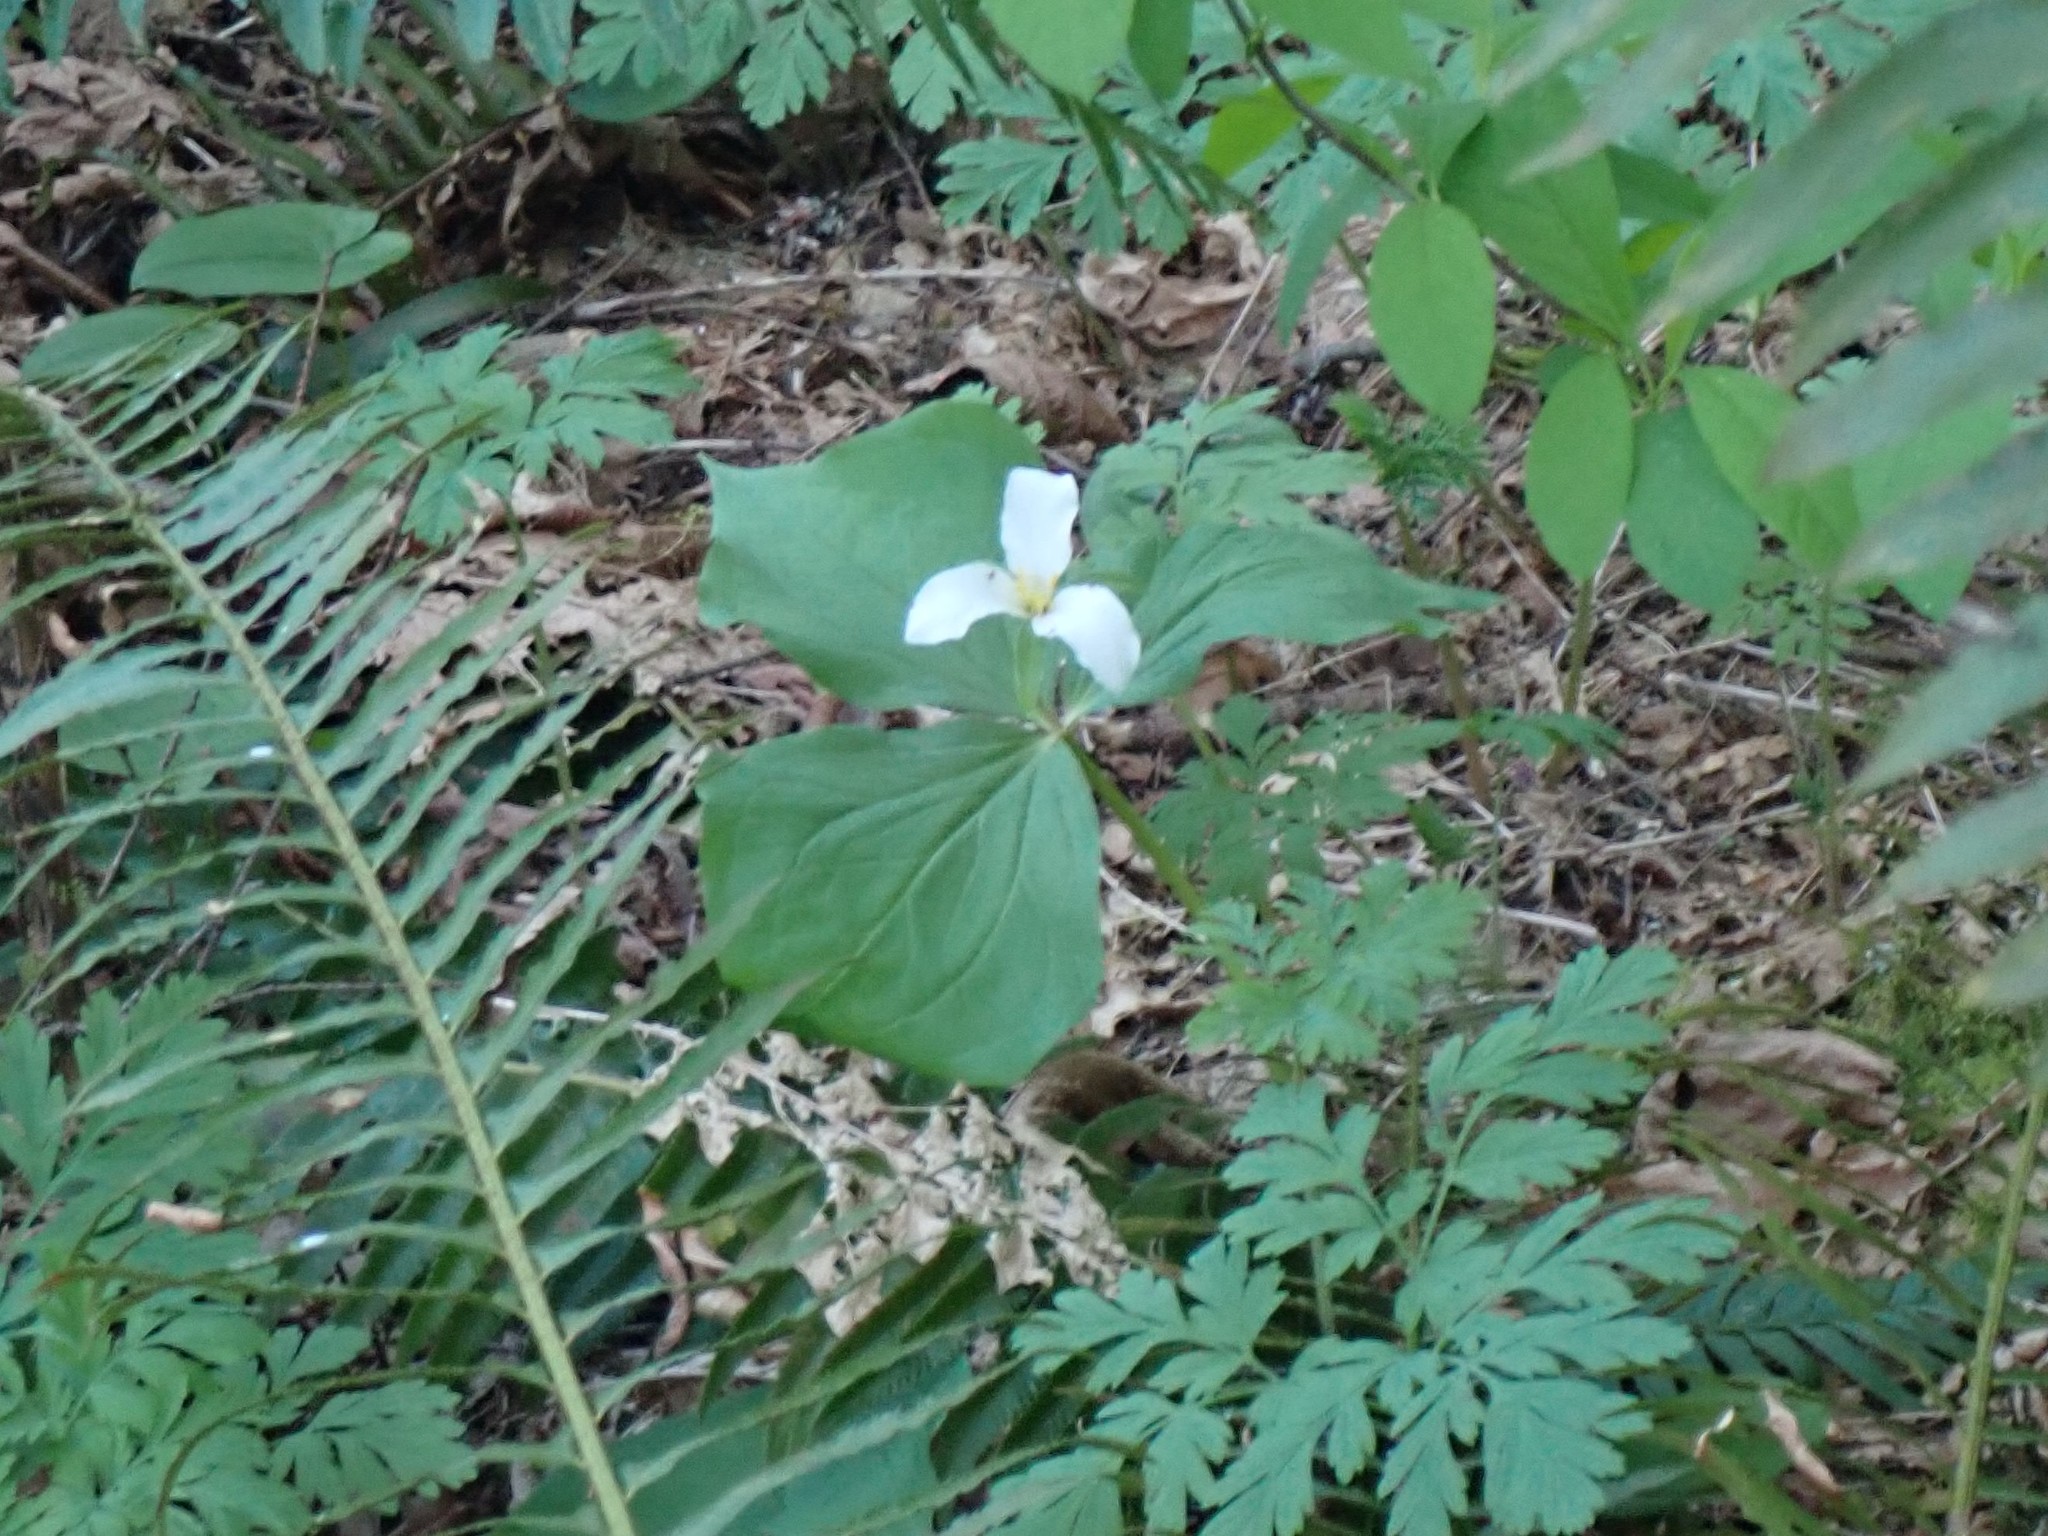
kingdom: Plantae
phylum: Tracheophyta
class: Liliopsida
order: Liliales
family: Melanthiaceae
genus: Trillium
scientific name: Trillium ovatum
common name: Pacific trillium
